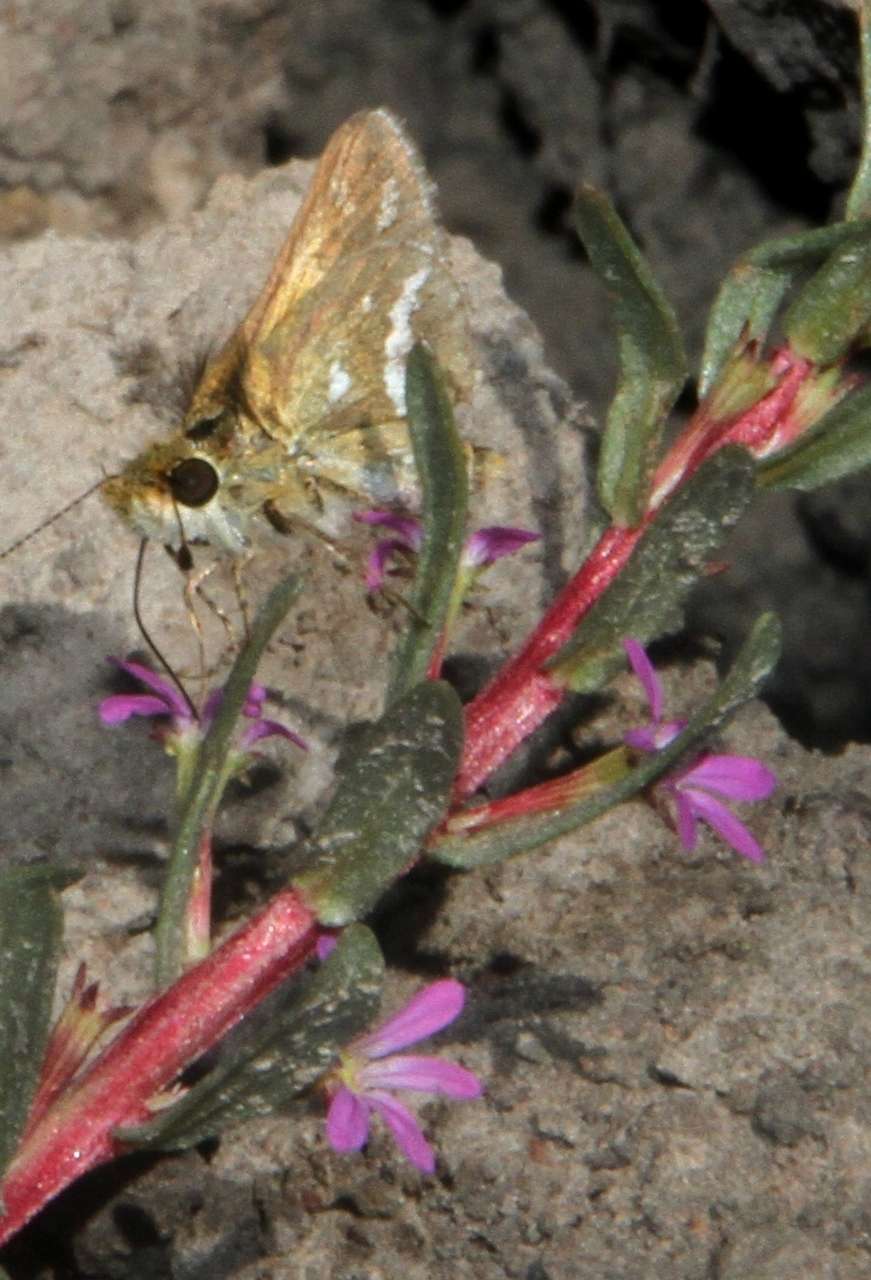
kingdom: Animalia
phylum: Arthropoda
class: Insecta
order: Lepidoptera
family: Hesperiidae
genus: Taractrocera
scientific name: Taractrocera papyria
